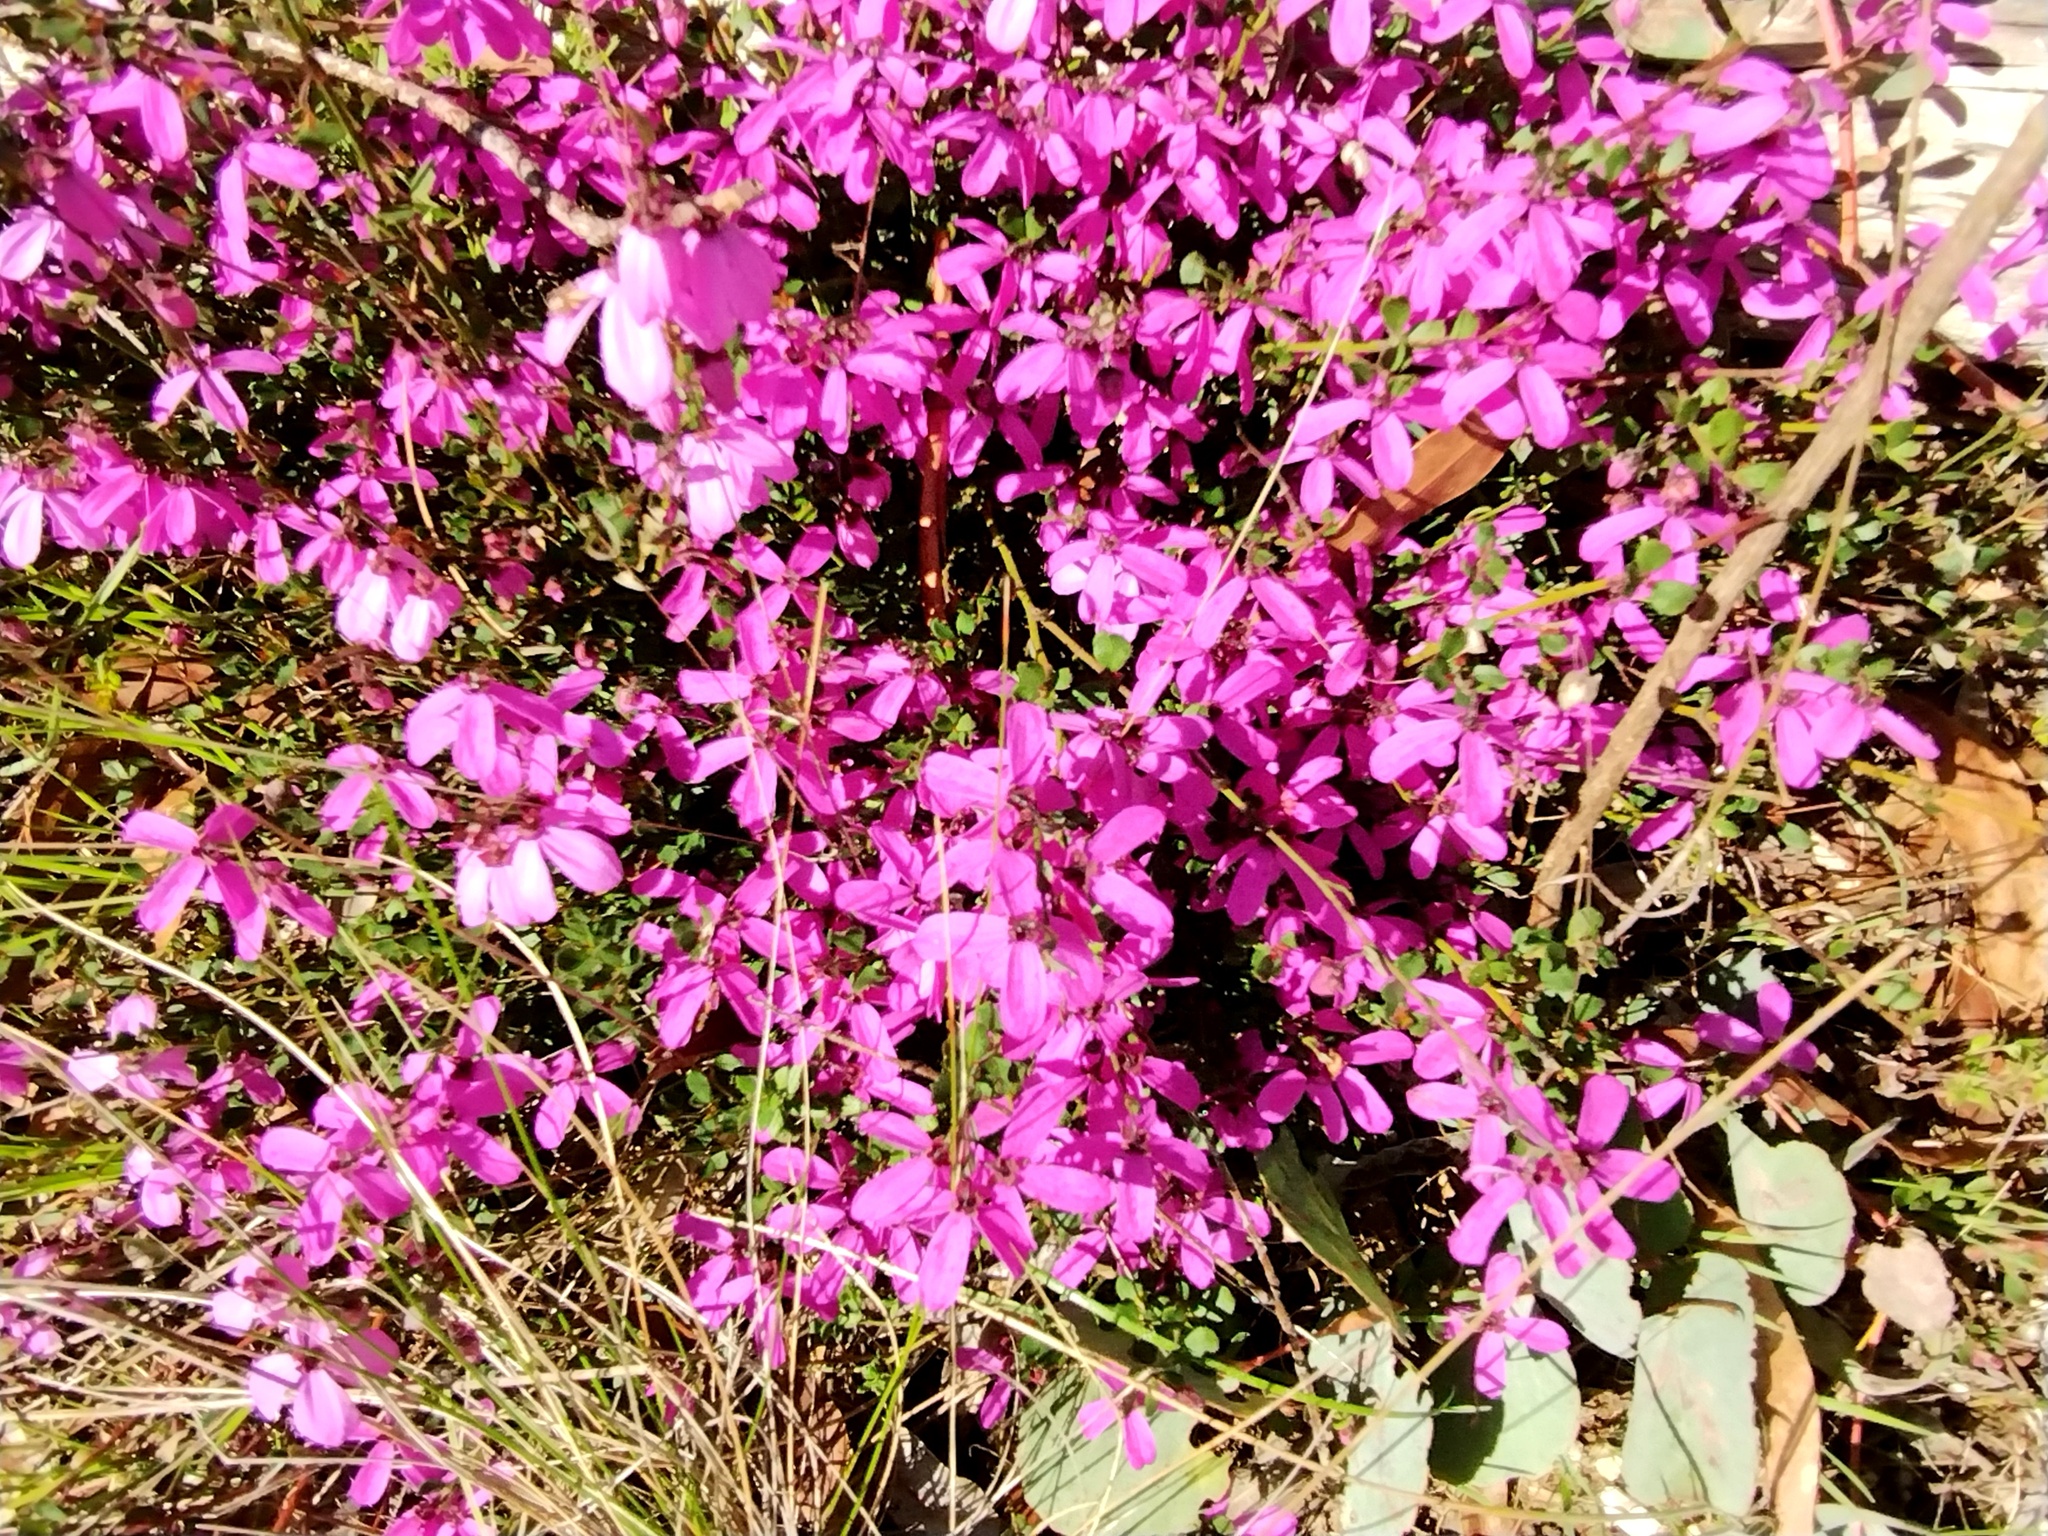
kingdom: Plantae
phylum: Tracheophyta
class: Magnoliopsida
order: Oxalidales
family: Elaeocarpaceae
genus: Tetratheca
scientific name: Tetratheca ciliata
